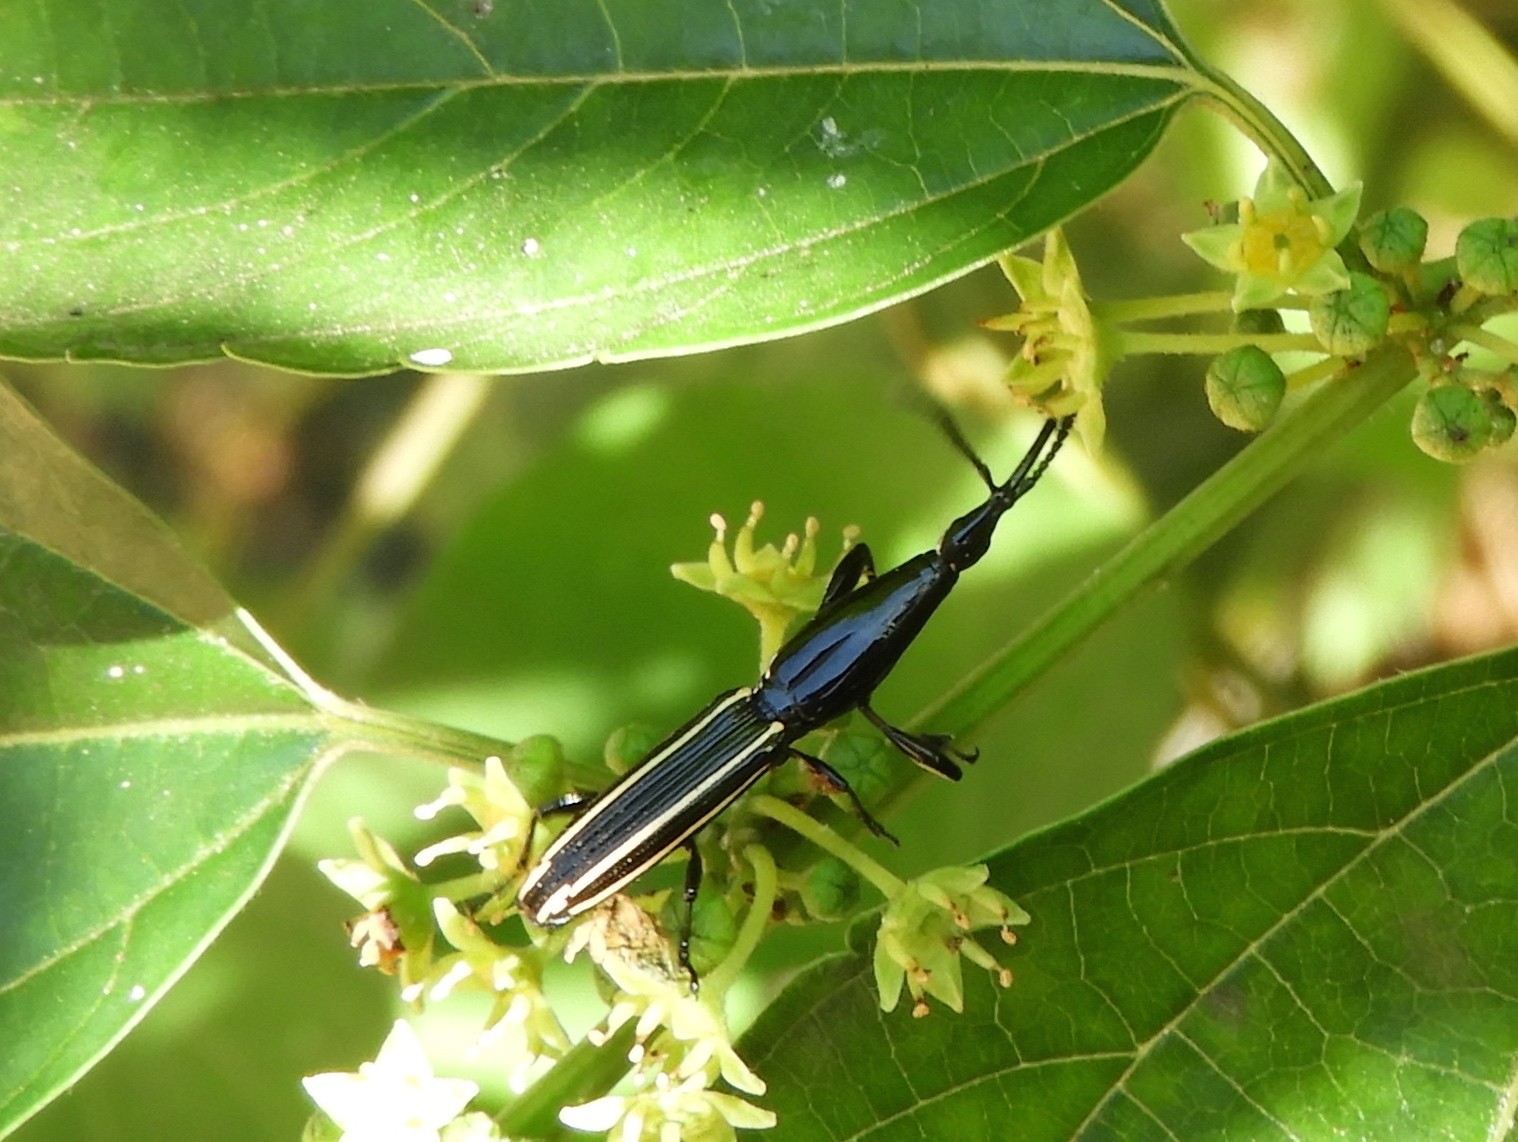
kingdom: Animalia
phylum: Arthropoda
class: Insecta
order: Coleoptera
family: Brentidae
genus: Brentus
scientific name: Brentus anchorago
